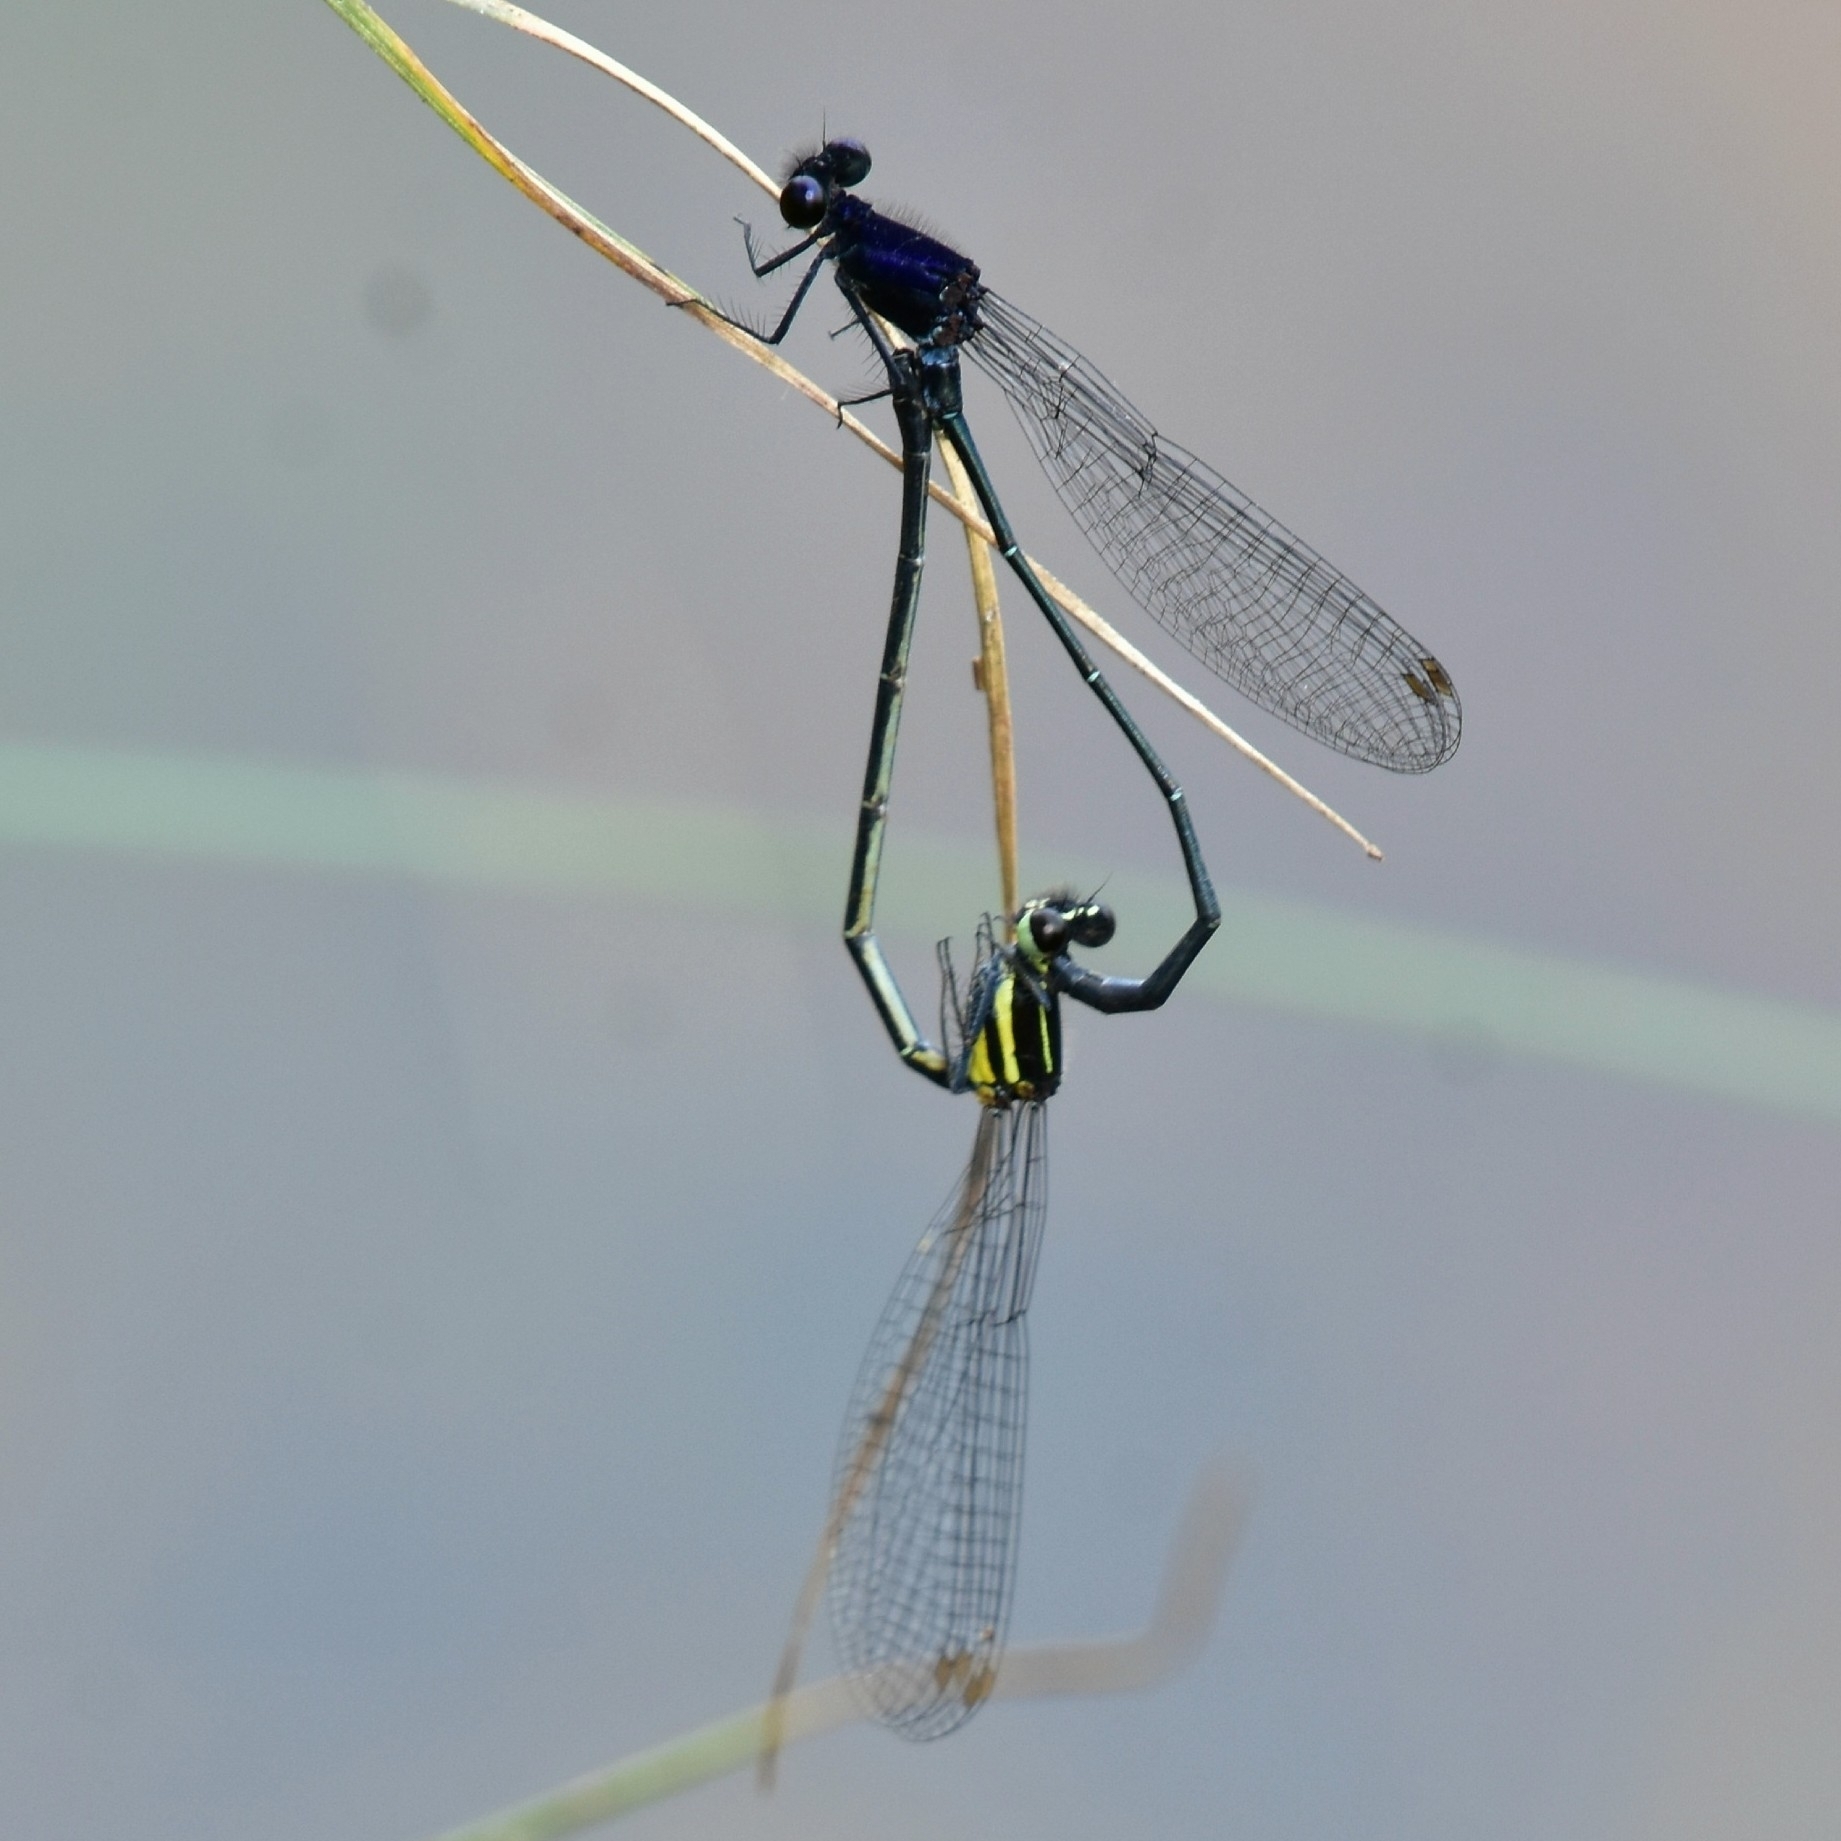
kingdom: Animalia
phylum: Arthropoda
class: Insecta
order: Odonata
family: Platycnemididae
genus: Onychargia
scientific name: Onychargia atrocyana
